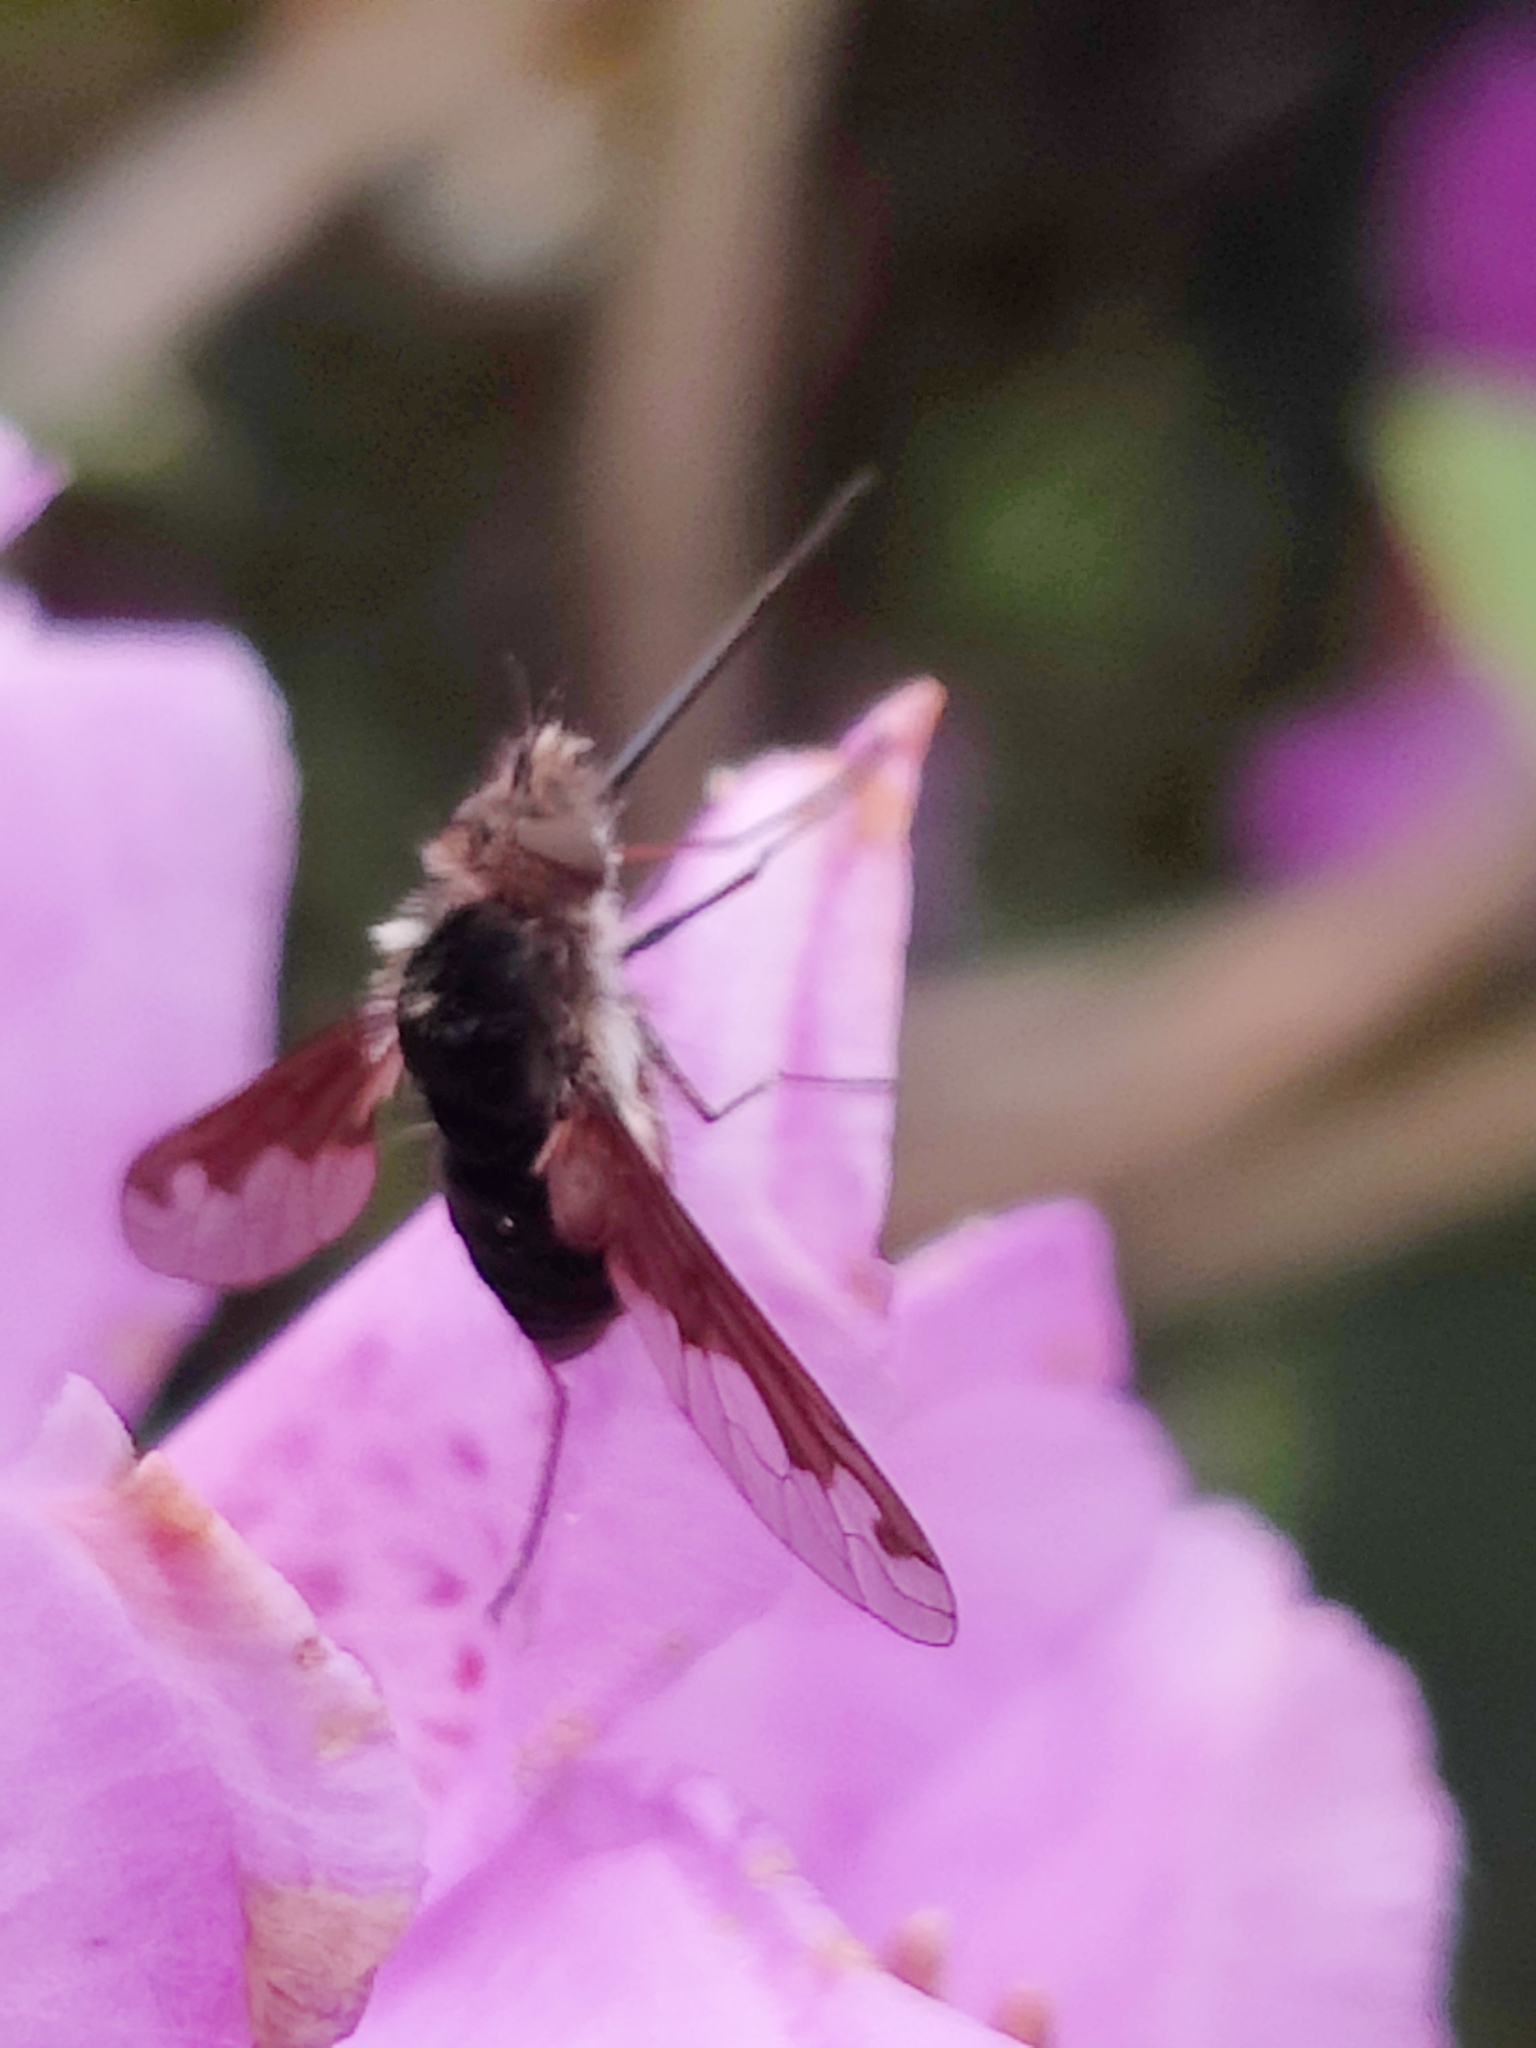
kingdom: Animalia
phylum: Arthropoda
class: Insecta
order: Diptera
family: Bombyliidae
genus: Bombylius
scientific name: Bombylius major
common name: Bee fly
